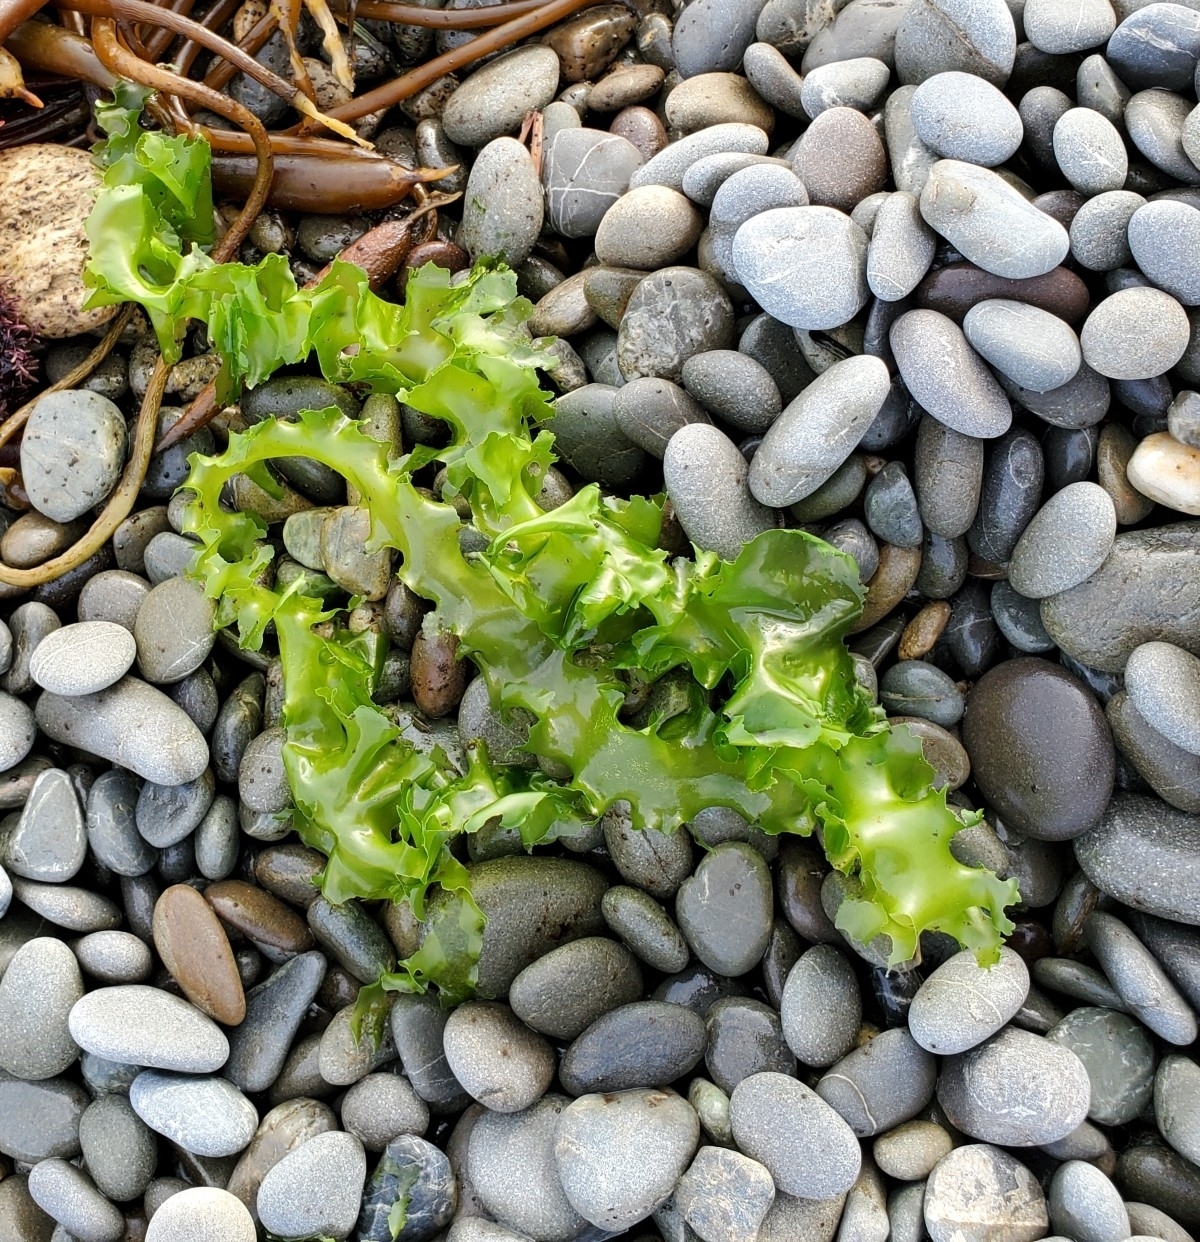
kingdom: Plantae
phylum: Chlorophyta
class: Ulvophyceae
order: Ulvales
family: Ulvaceae
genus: Ulva
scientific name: Ulva
